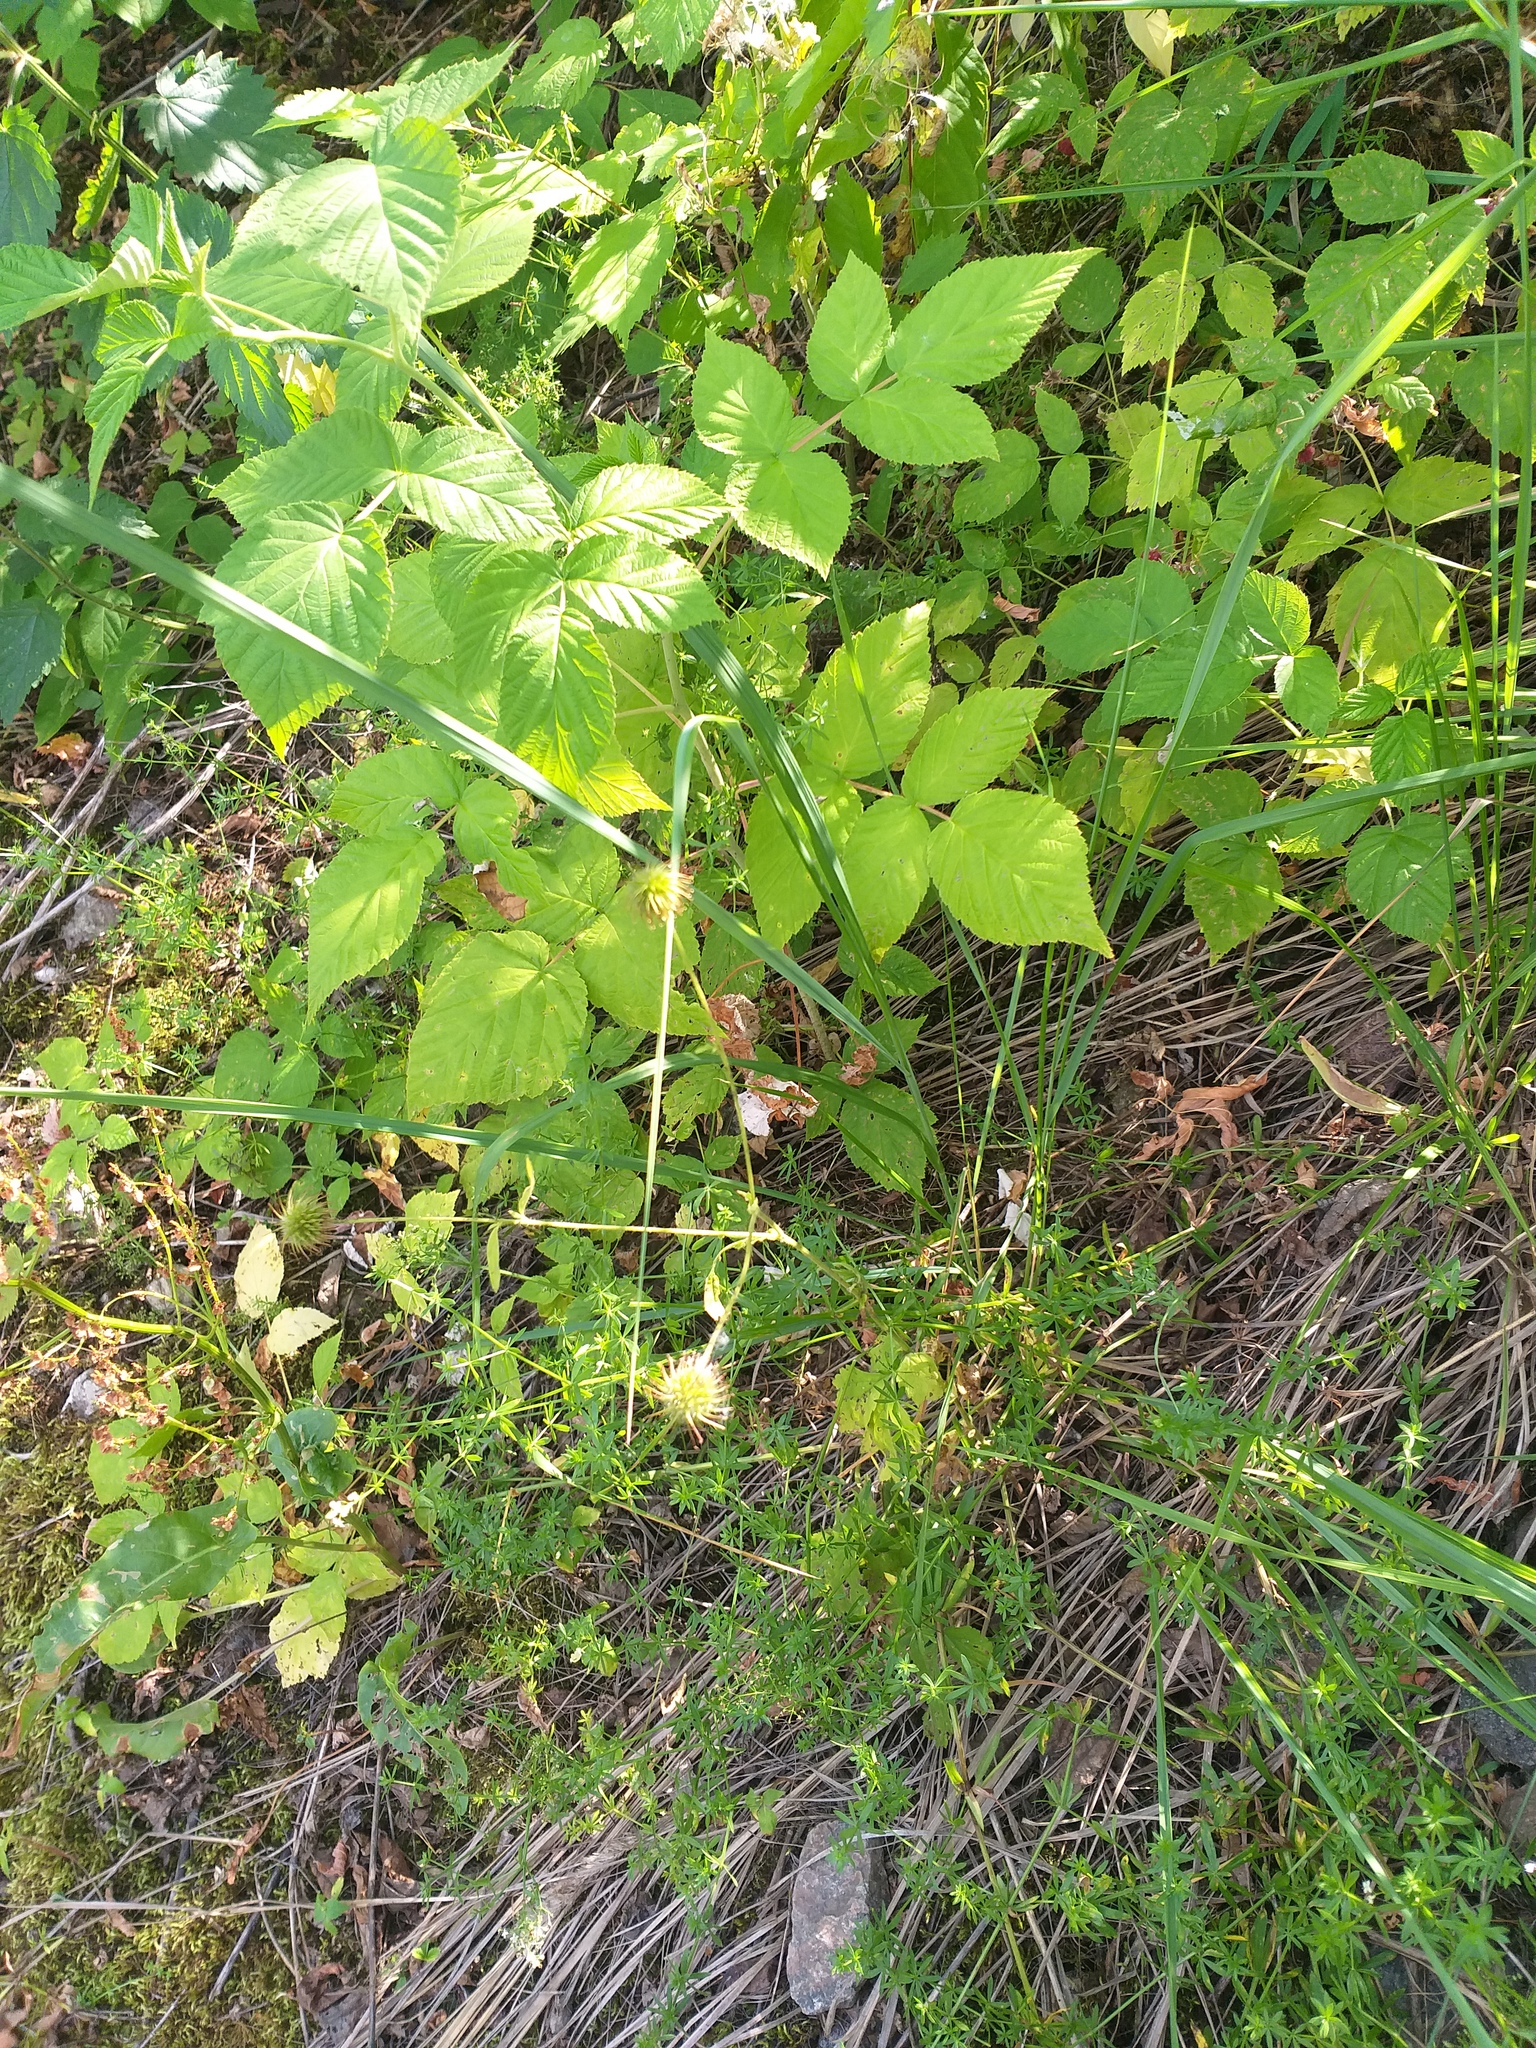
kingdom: Plantae
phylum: Tracheophyta
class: Magnoliopsida
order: Rosales
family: Rosaceae
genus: Rubus
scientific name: Rubus idaeus
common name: Raspberry
